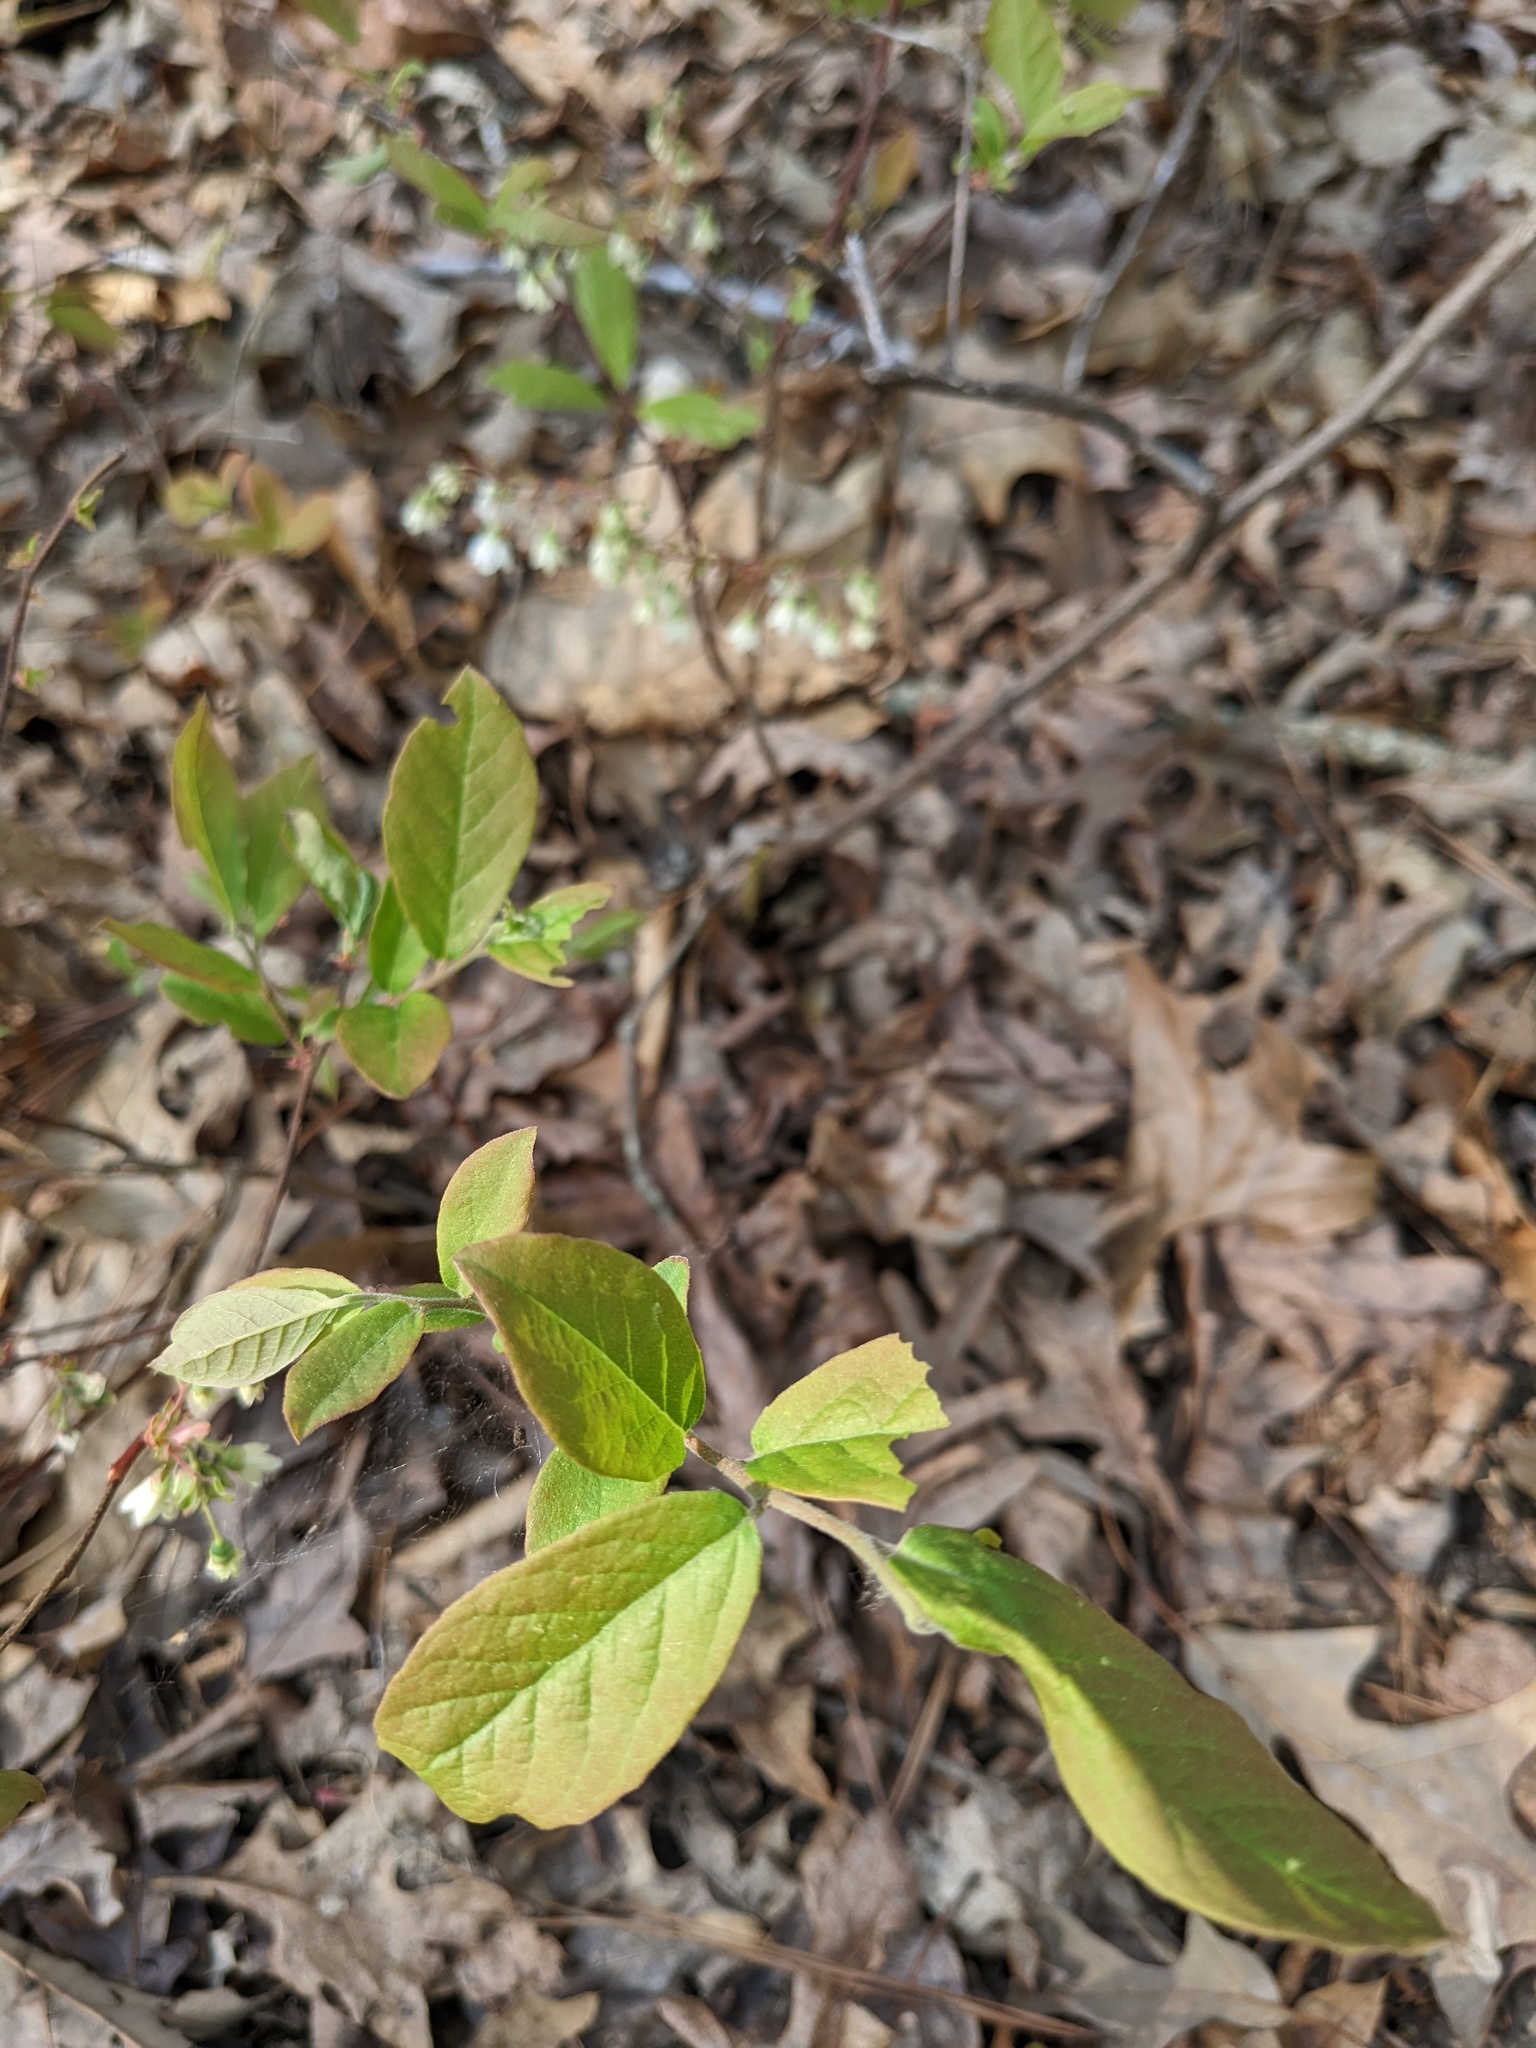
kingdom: Plantae
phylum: Tracheophyta
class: Magnoliopsida
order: Ericales
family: Ericaceae
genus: Vaccinium
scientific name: Vaccinium stamineum
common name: Deerberry
